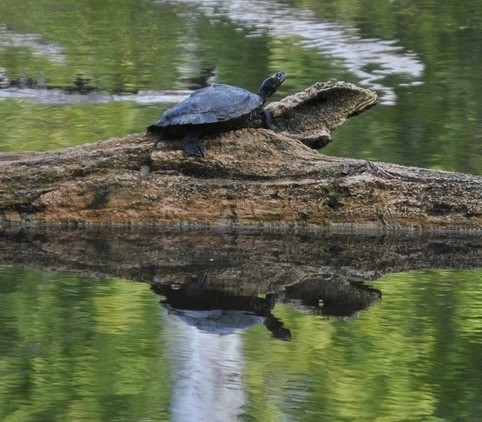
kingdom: Animalia
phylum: Chordata
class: Testudines
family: Emydidae
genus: Graptemys
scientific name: Graptemys ouachitensis
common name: Ouachita map turtle
